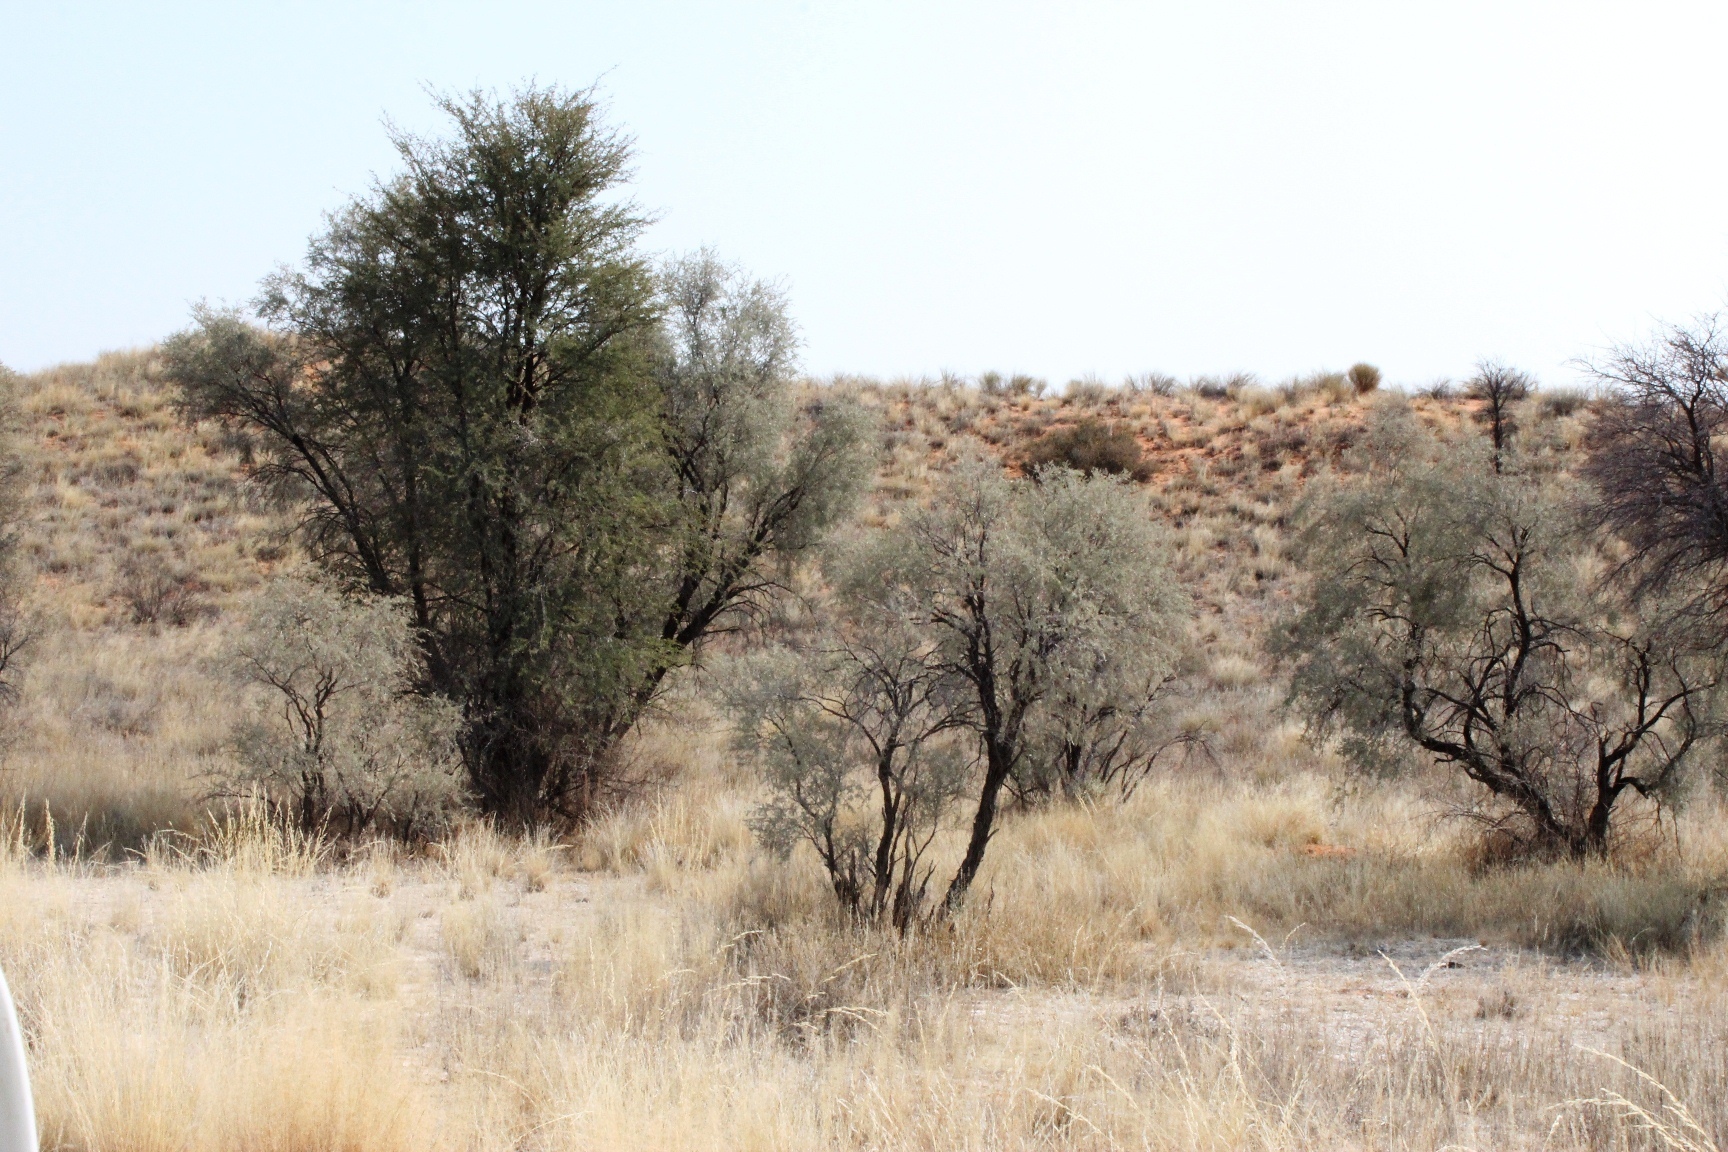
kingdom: Plantae
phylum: Tracheophyta
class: Magnoliopsida
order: Fabales
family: Fabaceae
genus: Vachellia
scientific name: Vachellia haematoxylon
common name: Grey camel thorn
